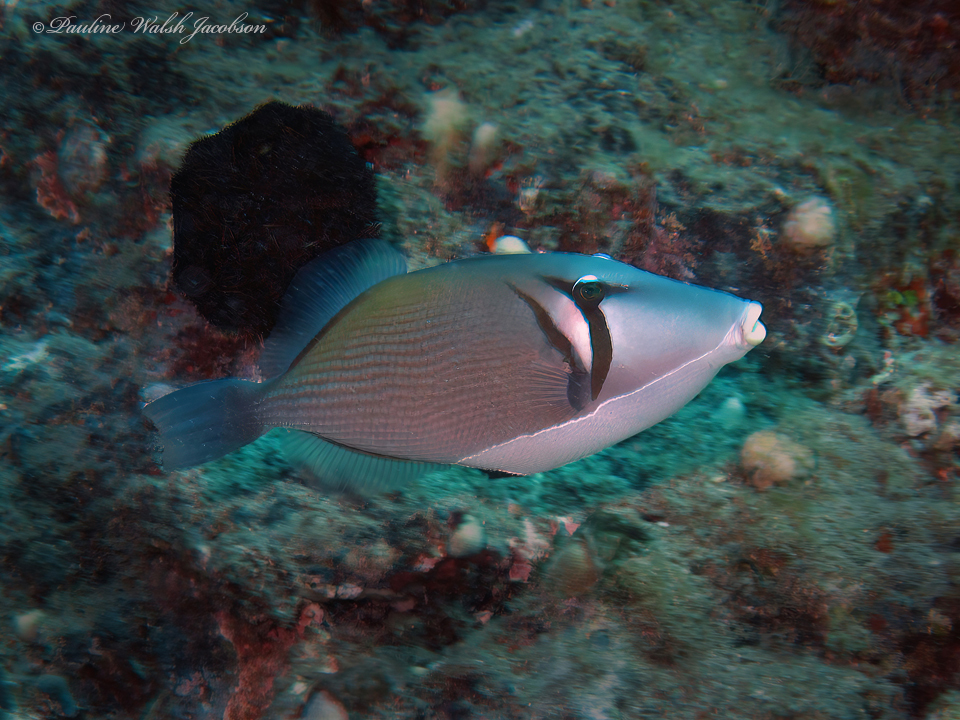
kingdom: Animalia
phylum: Chordata
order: Tetraodontiformes
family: Balistidae
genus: Sufflamen
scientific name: Sufflamen bursa
